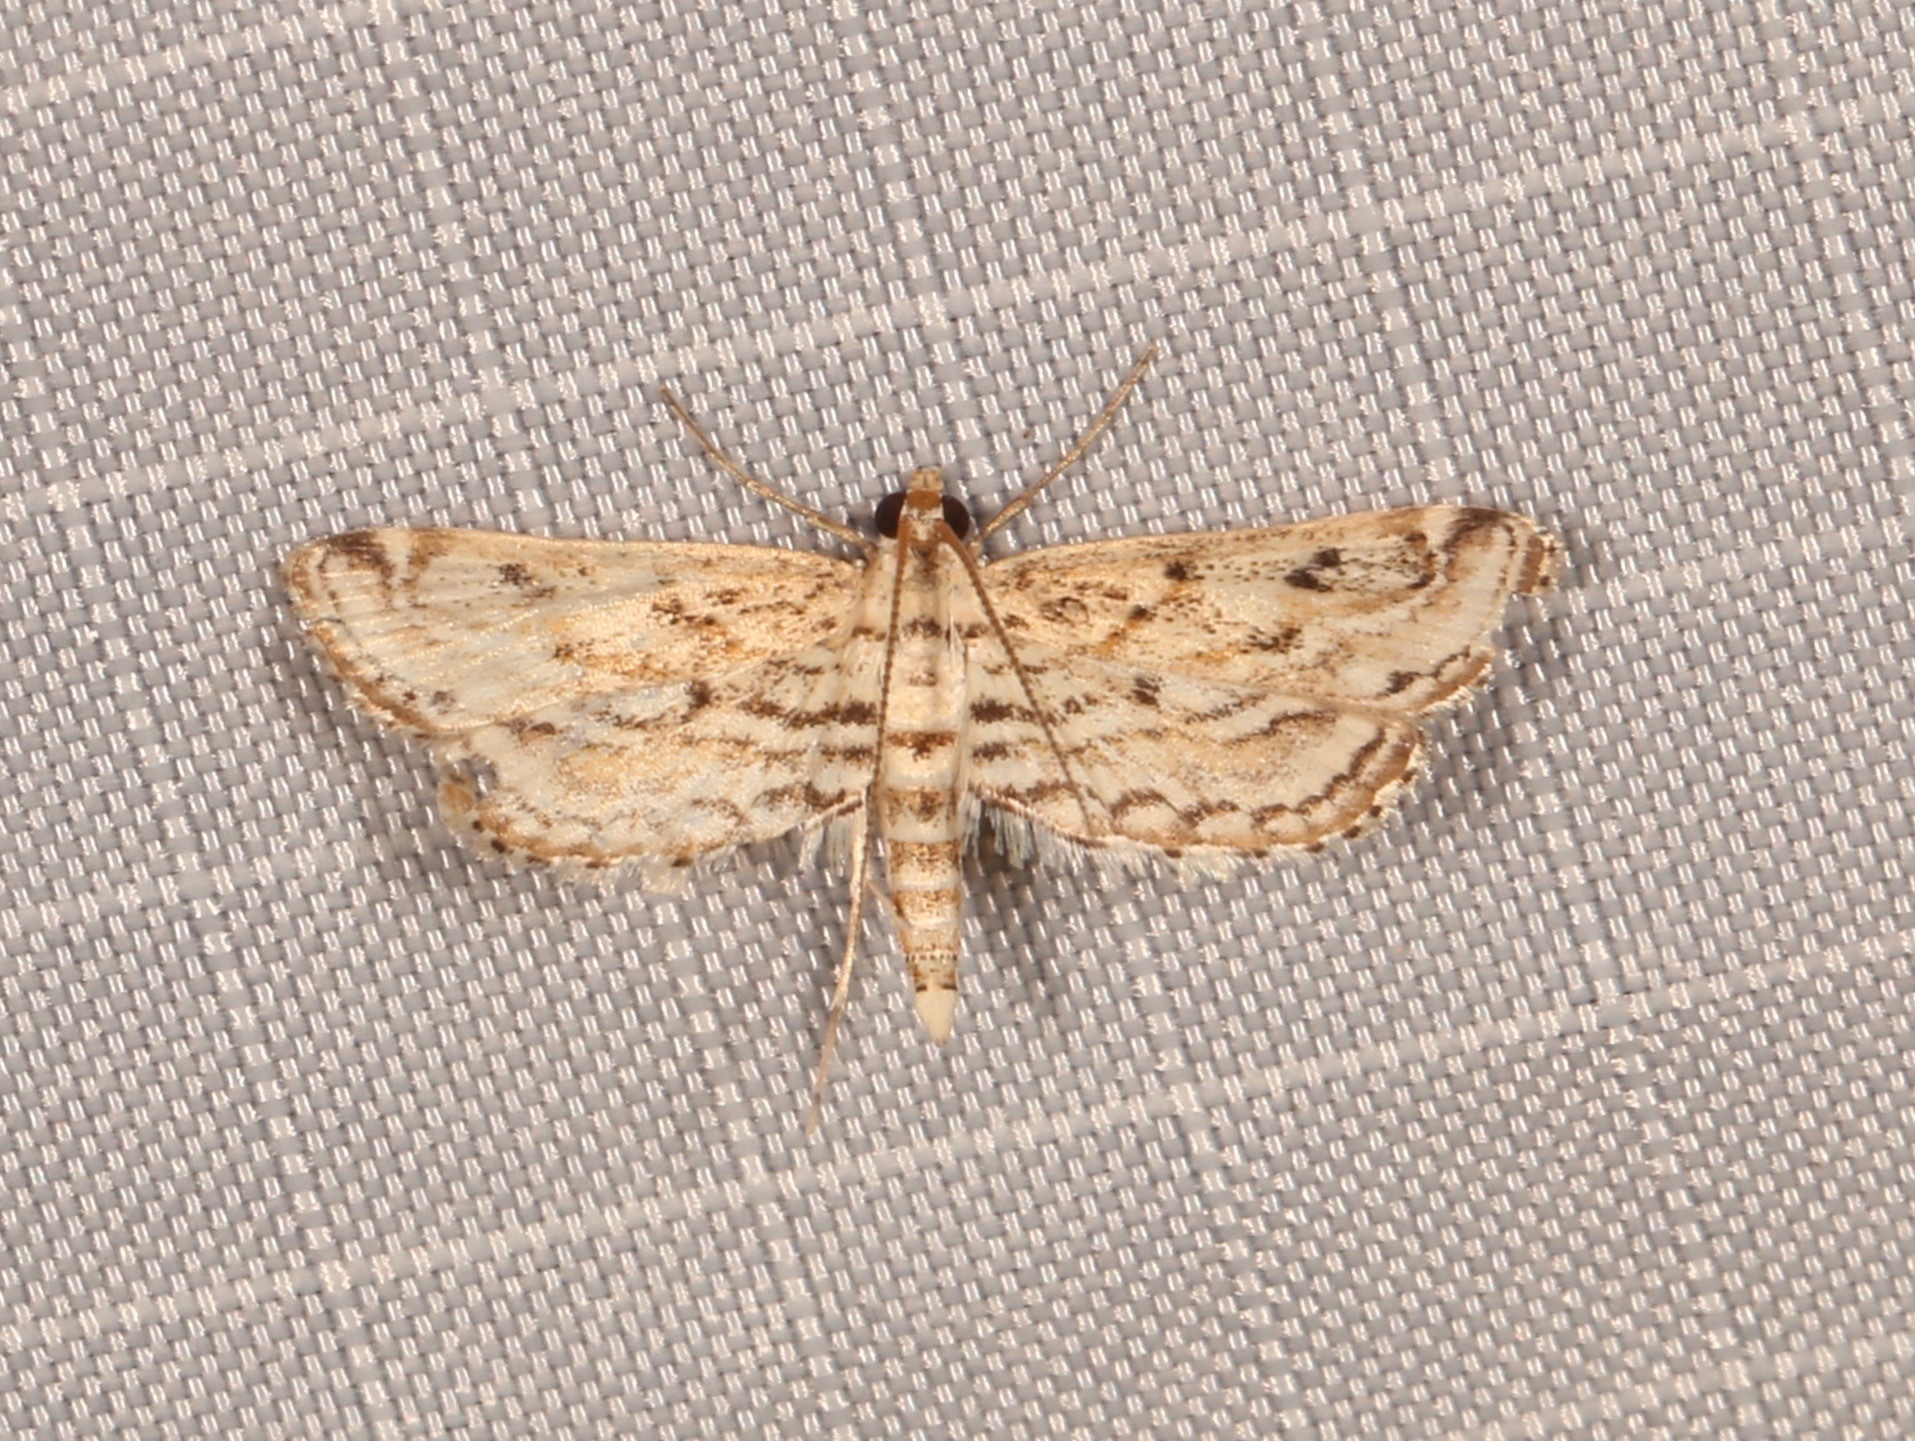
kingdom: Animalia
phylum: Arthropoda
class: Insecta
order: Lepidoptera
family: Crambidae
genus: Parapoynx
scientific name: Parapoynx allionealis
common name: Bladderwort casemaker
